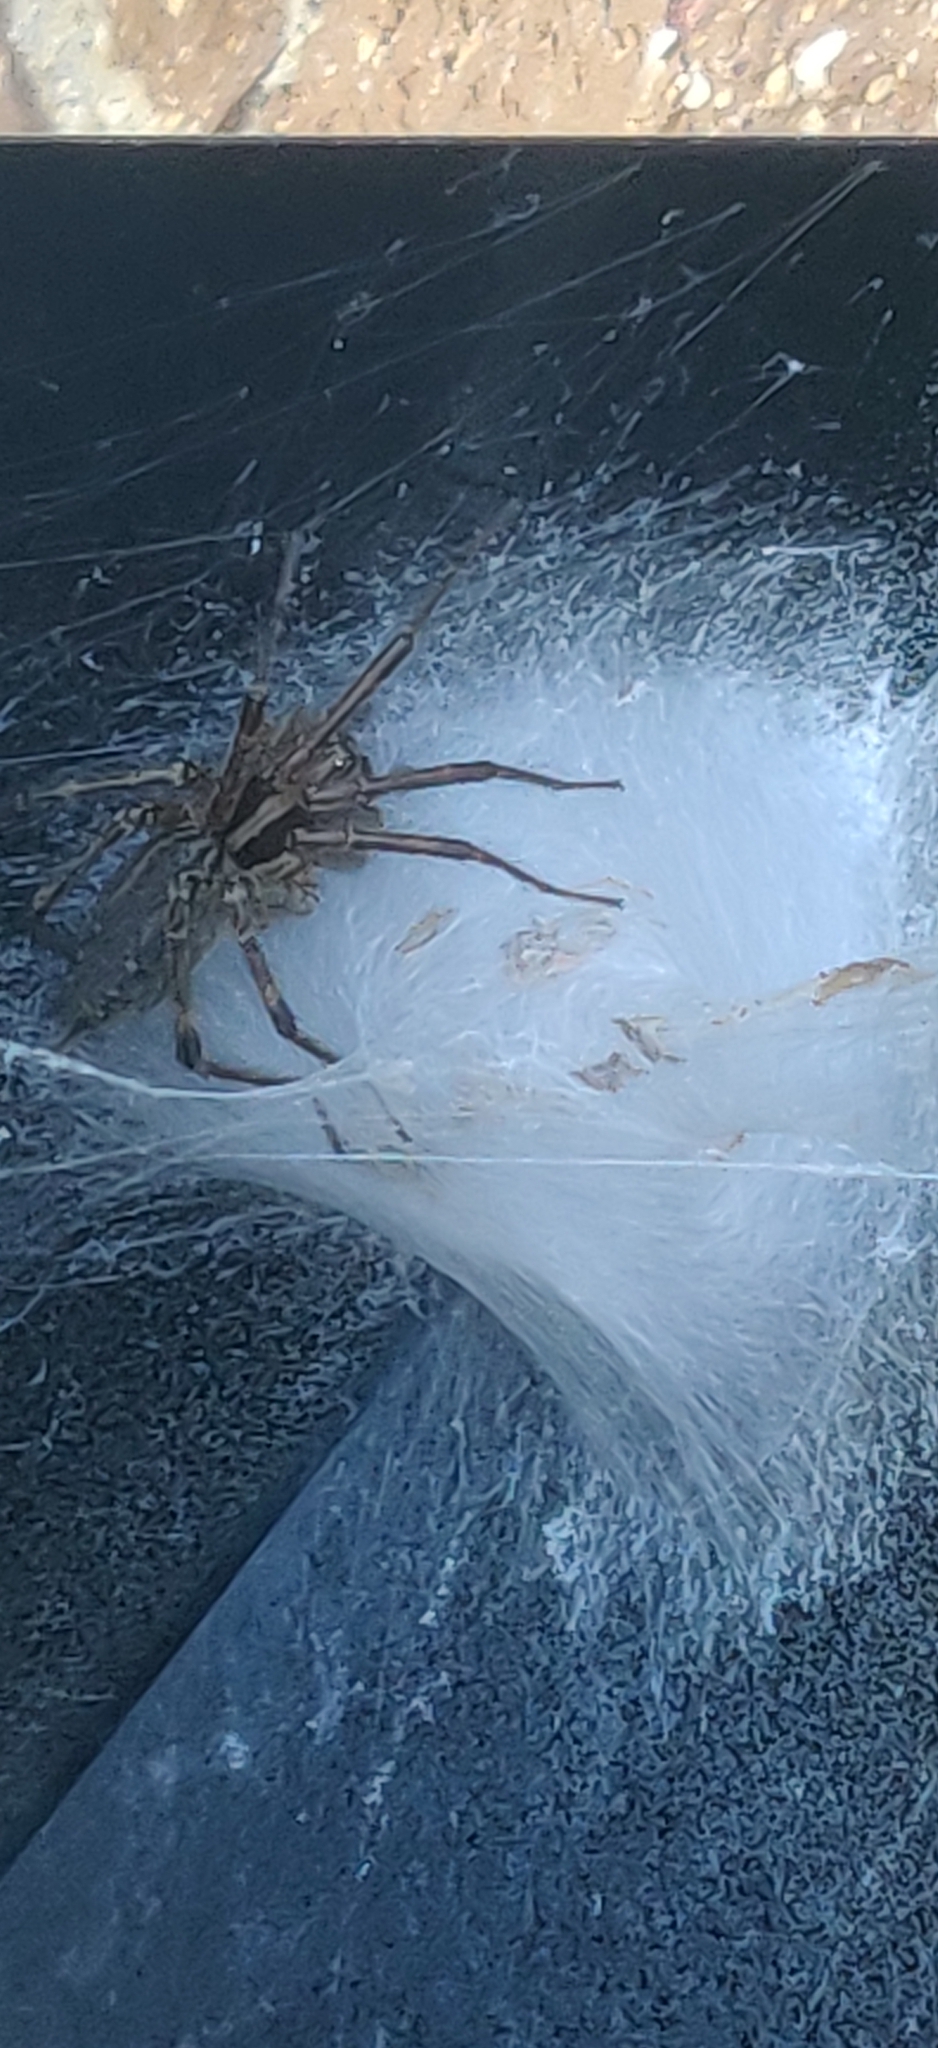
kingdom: Animalia
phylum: Arthropoda
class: Arachnida
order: Araneae
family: Agelenidae
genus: Agelenopsis
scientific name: Agelenopsis
